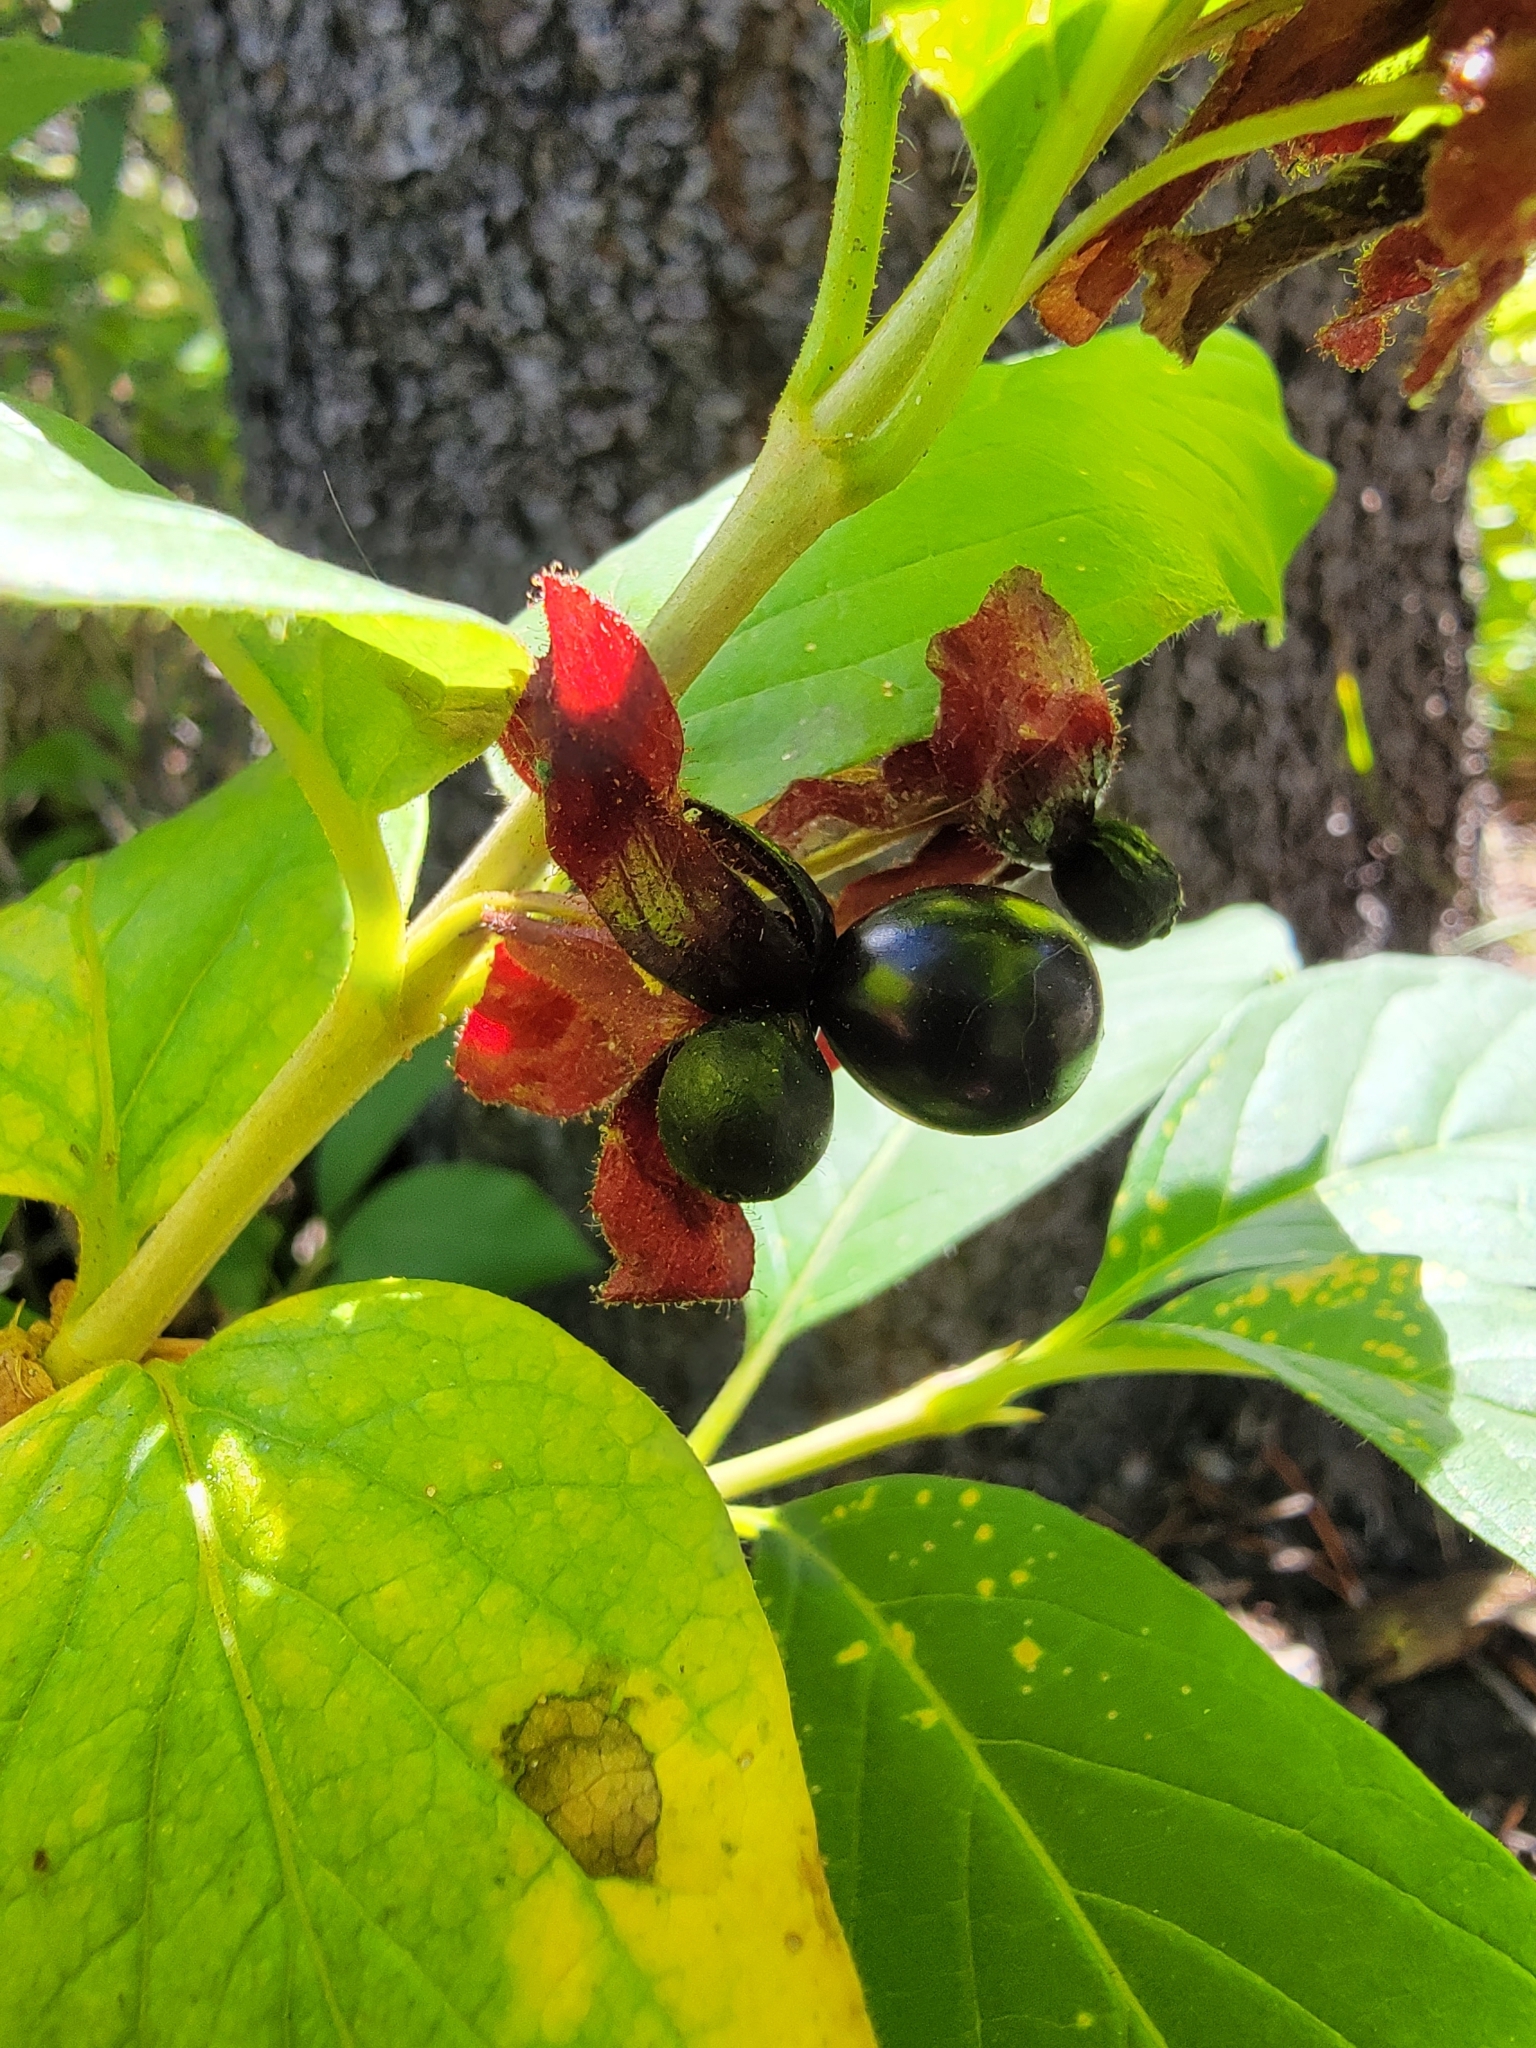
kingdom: Plantae
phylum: Tracheophyta
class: Magnoliopsida
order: Dipsacales
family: Caprifoliaceae
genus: Lonicera
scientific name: Lonicera involucrata
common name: Californian honeysuckle
